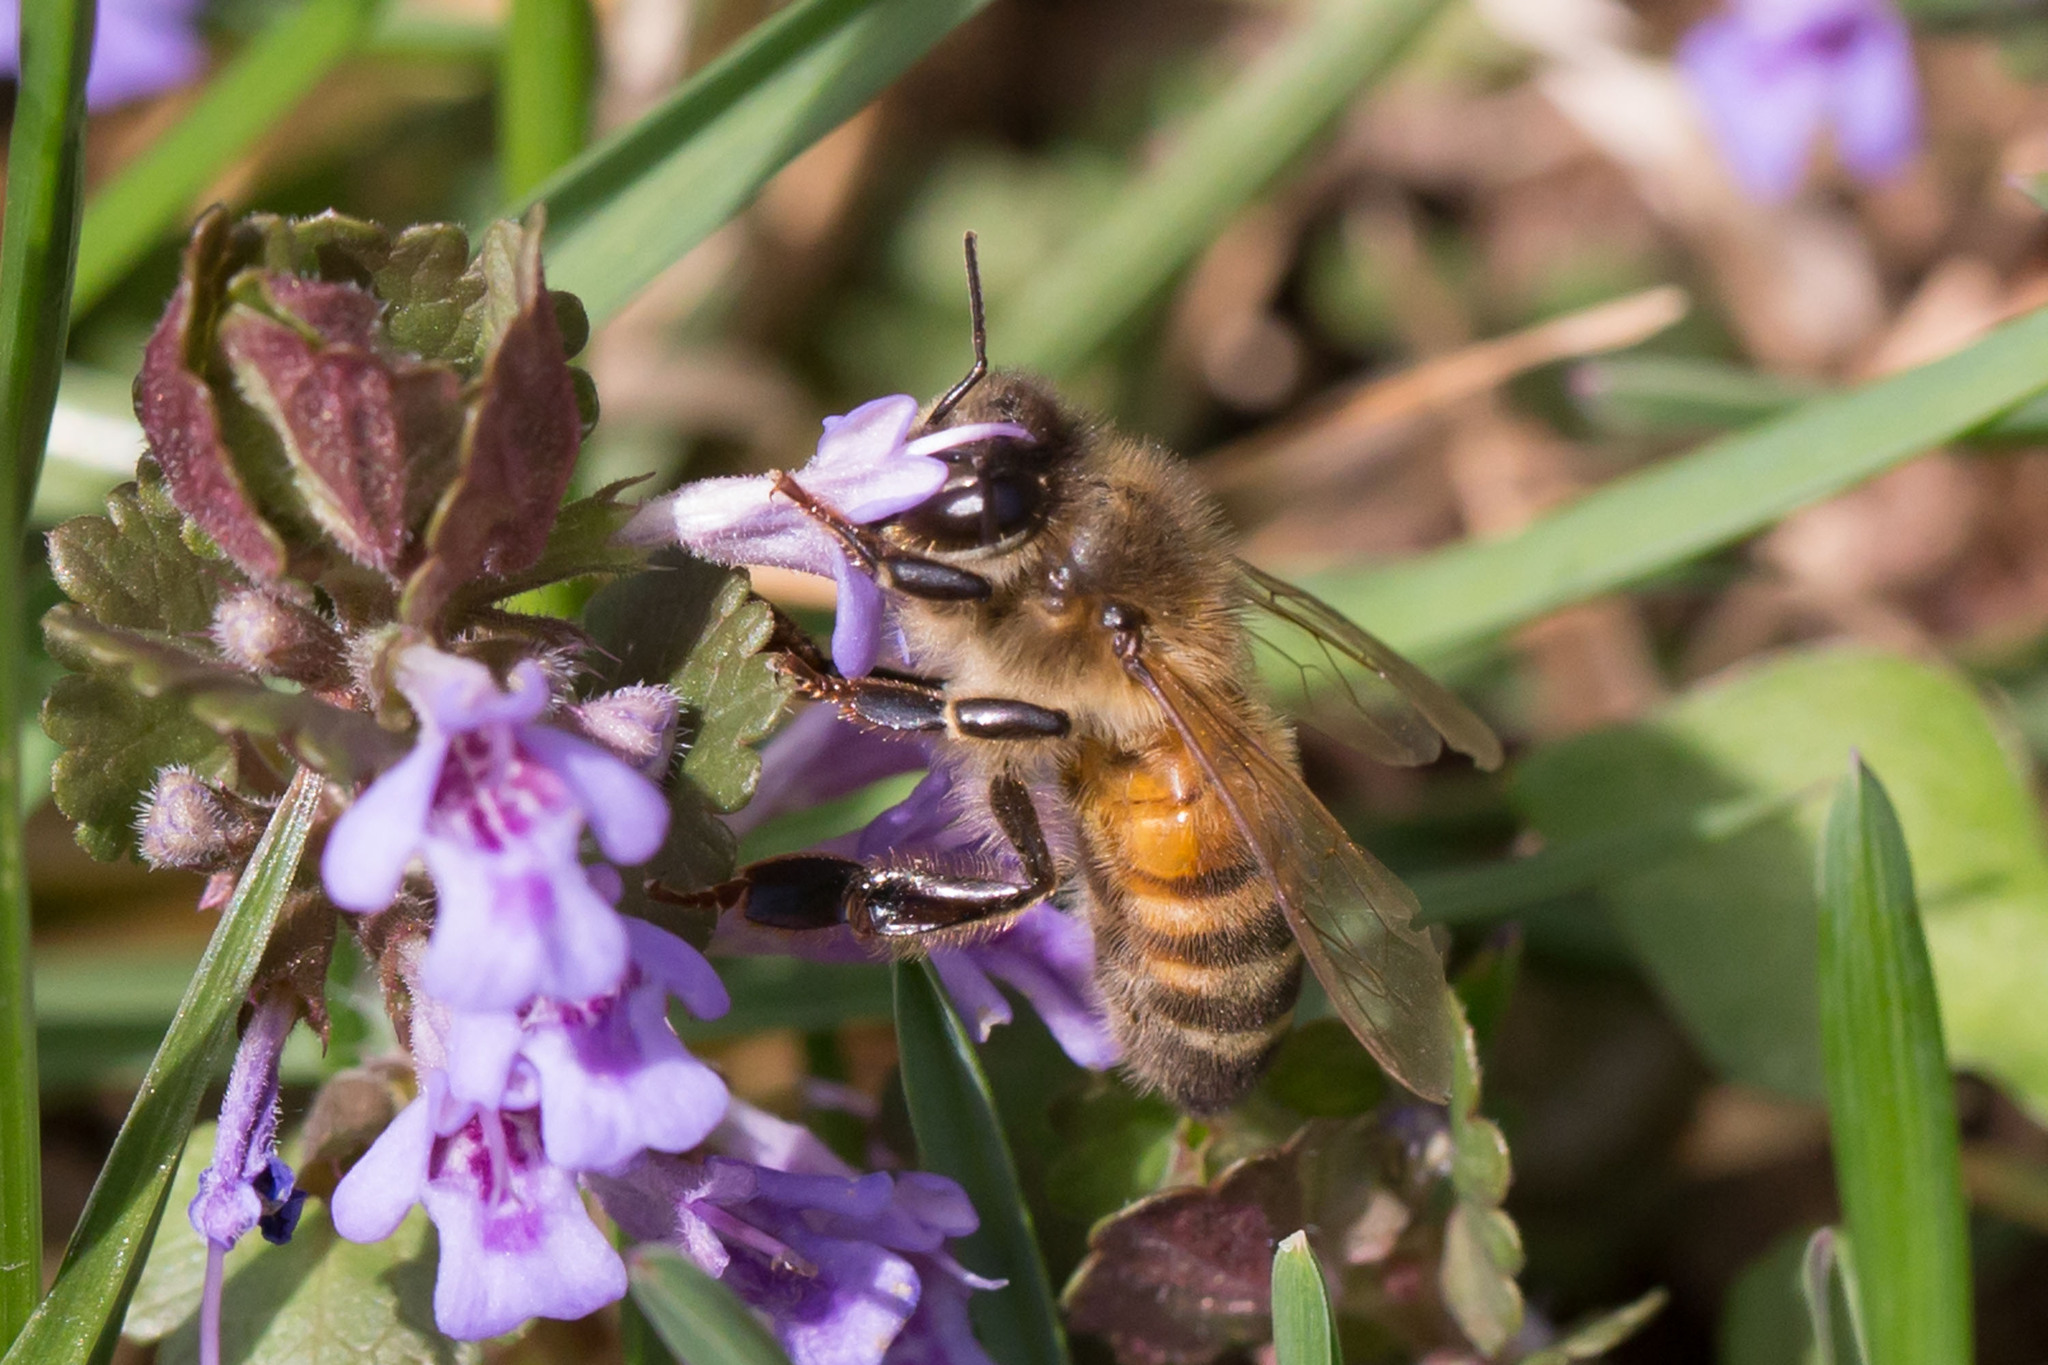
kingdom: Animalia
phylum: Arthropoda
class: Insecta
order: Hymenoptera
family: Apidae
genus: Apis
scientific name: Apis mellifera
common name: Honey bee
